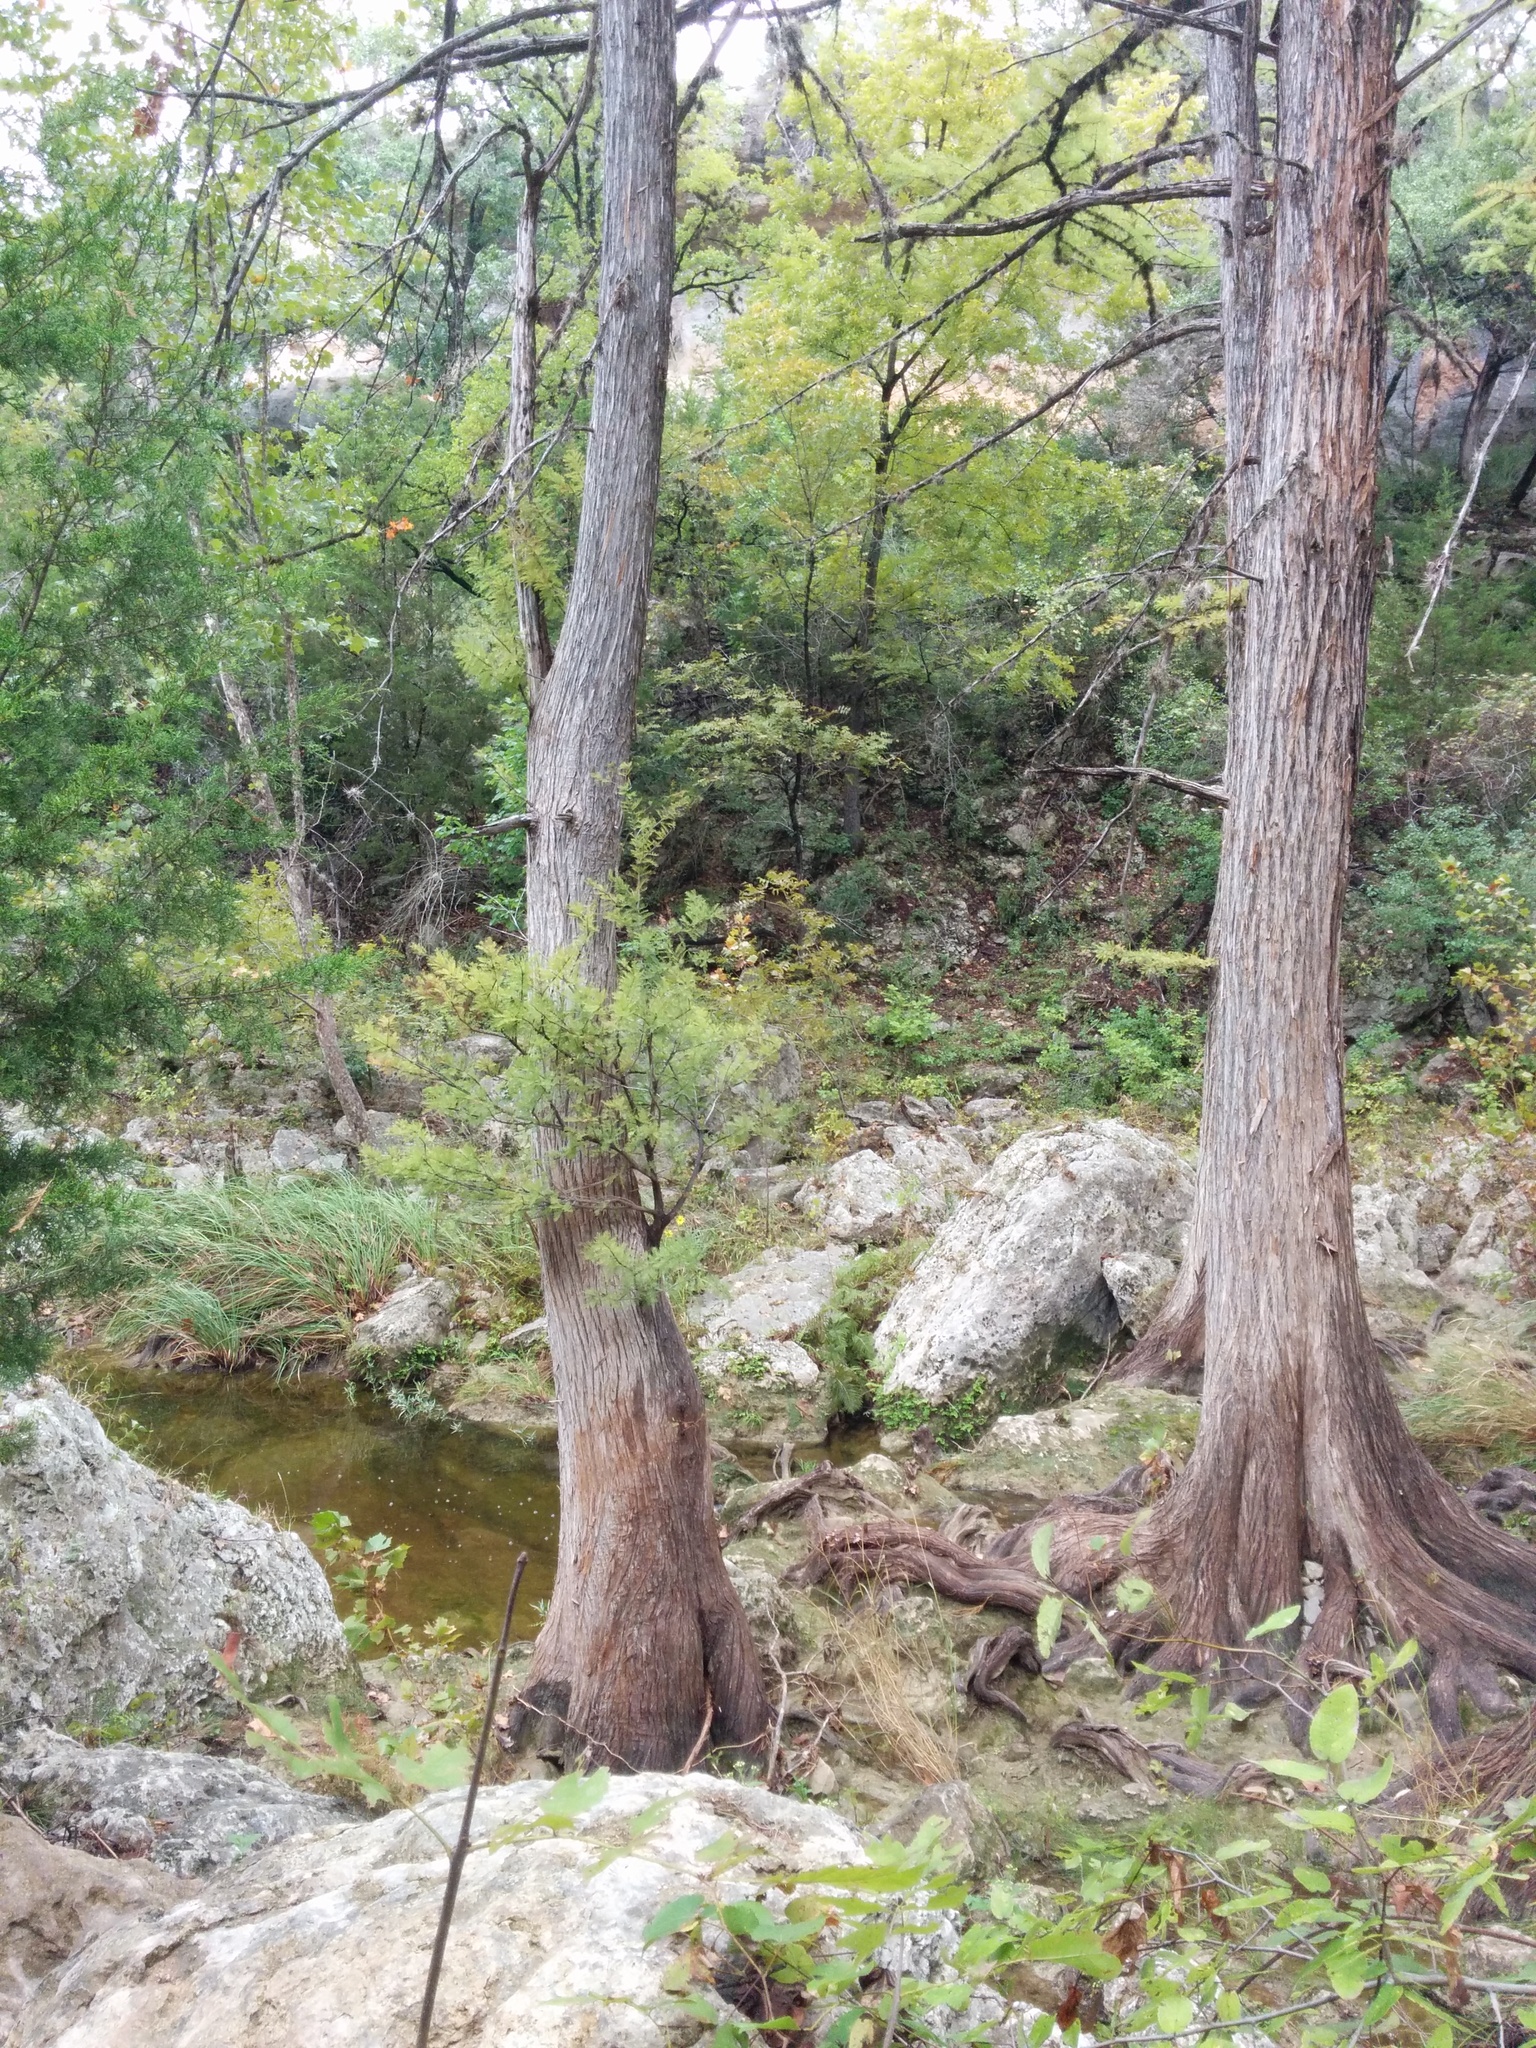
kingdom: Plantae
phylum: Tracheophyta
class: Pinopsida
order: Pinales
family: Cupressaceae
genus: Taxodium
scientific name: Taxodium distichum
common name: Bald cypress
